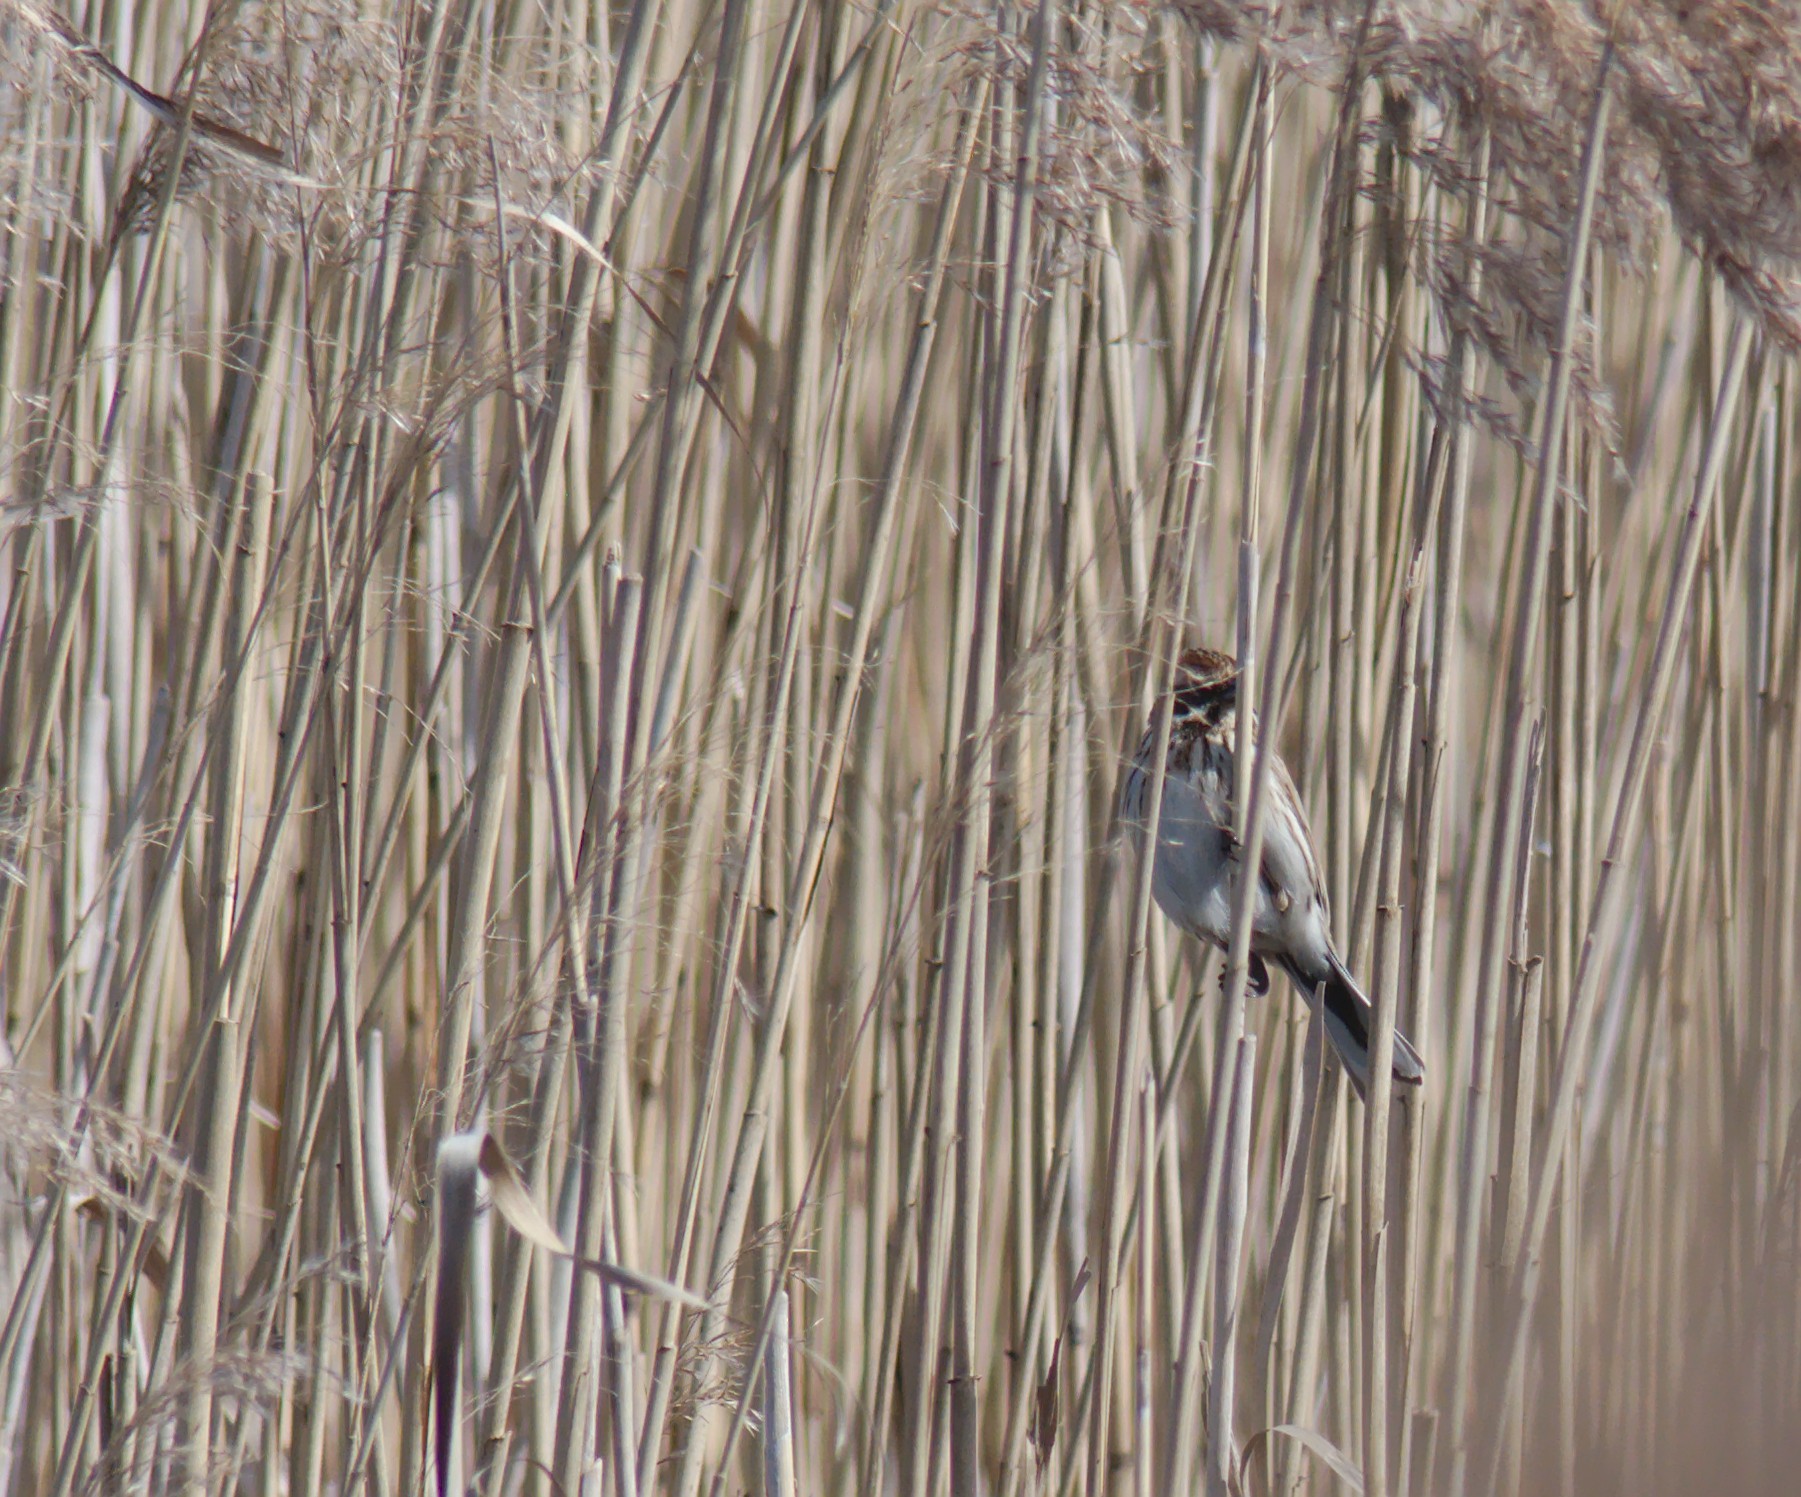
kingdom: Animalia
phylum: Chordata
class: Aves
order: Passeriformes
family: Emberizidae
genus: Emberiza
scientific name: Emberiza schoeniclus
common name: Reed bunting
